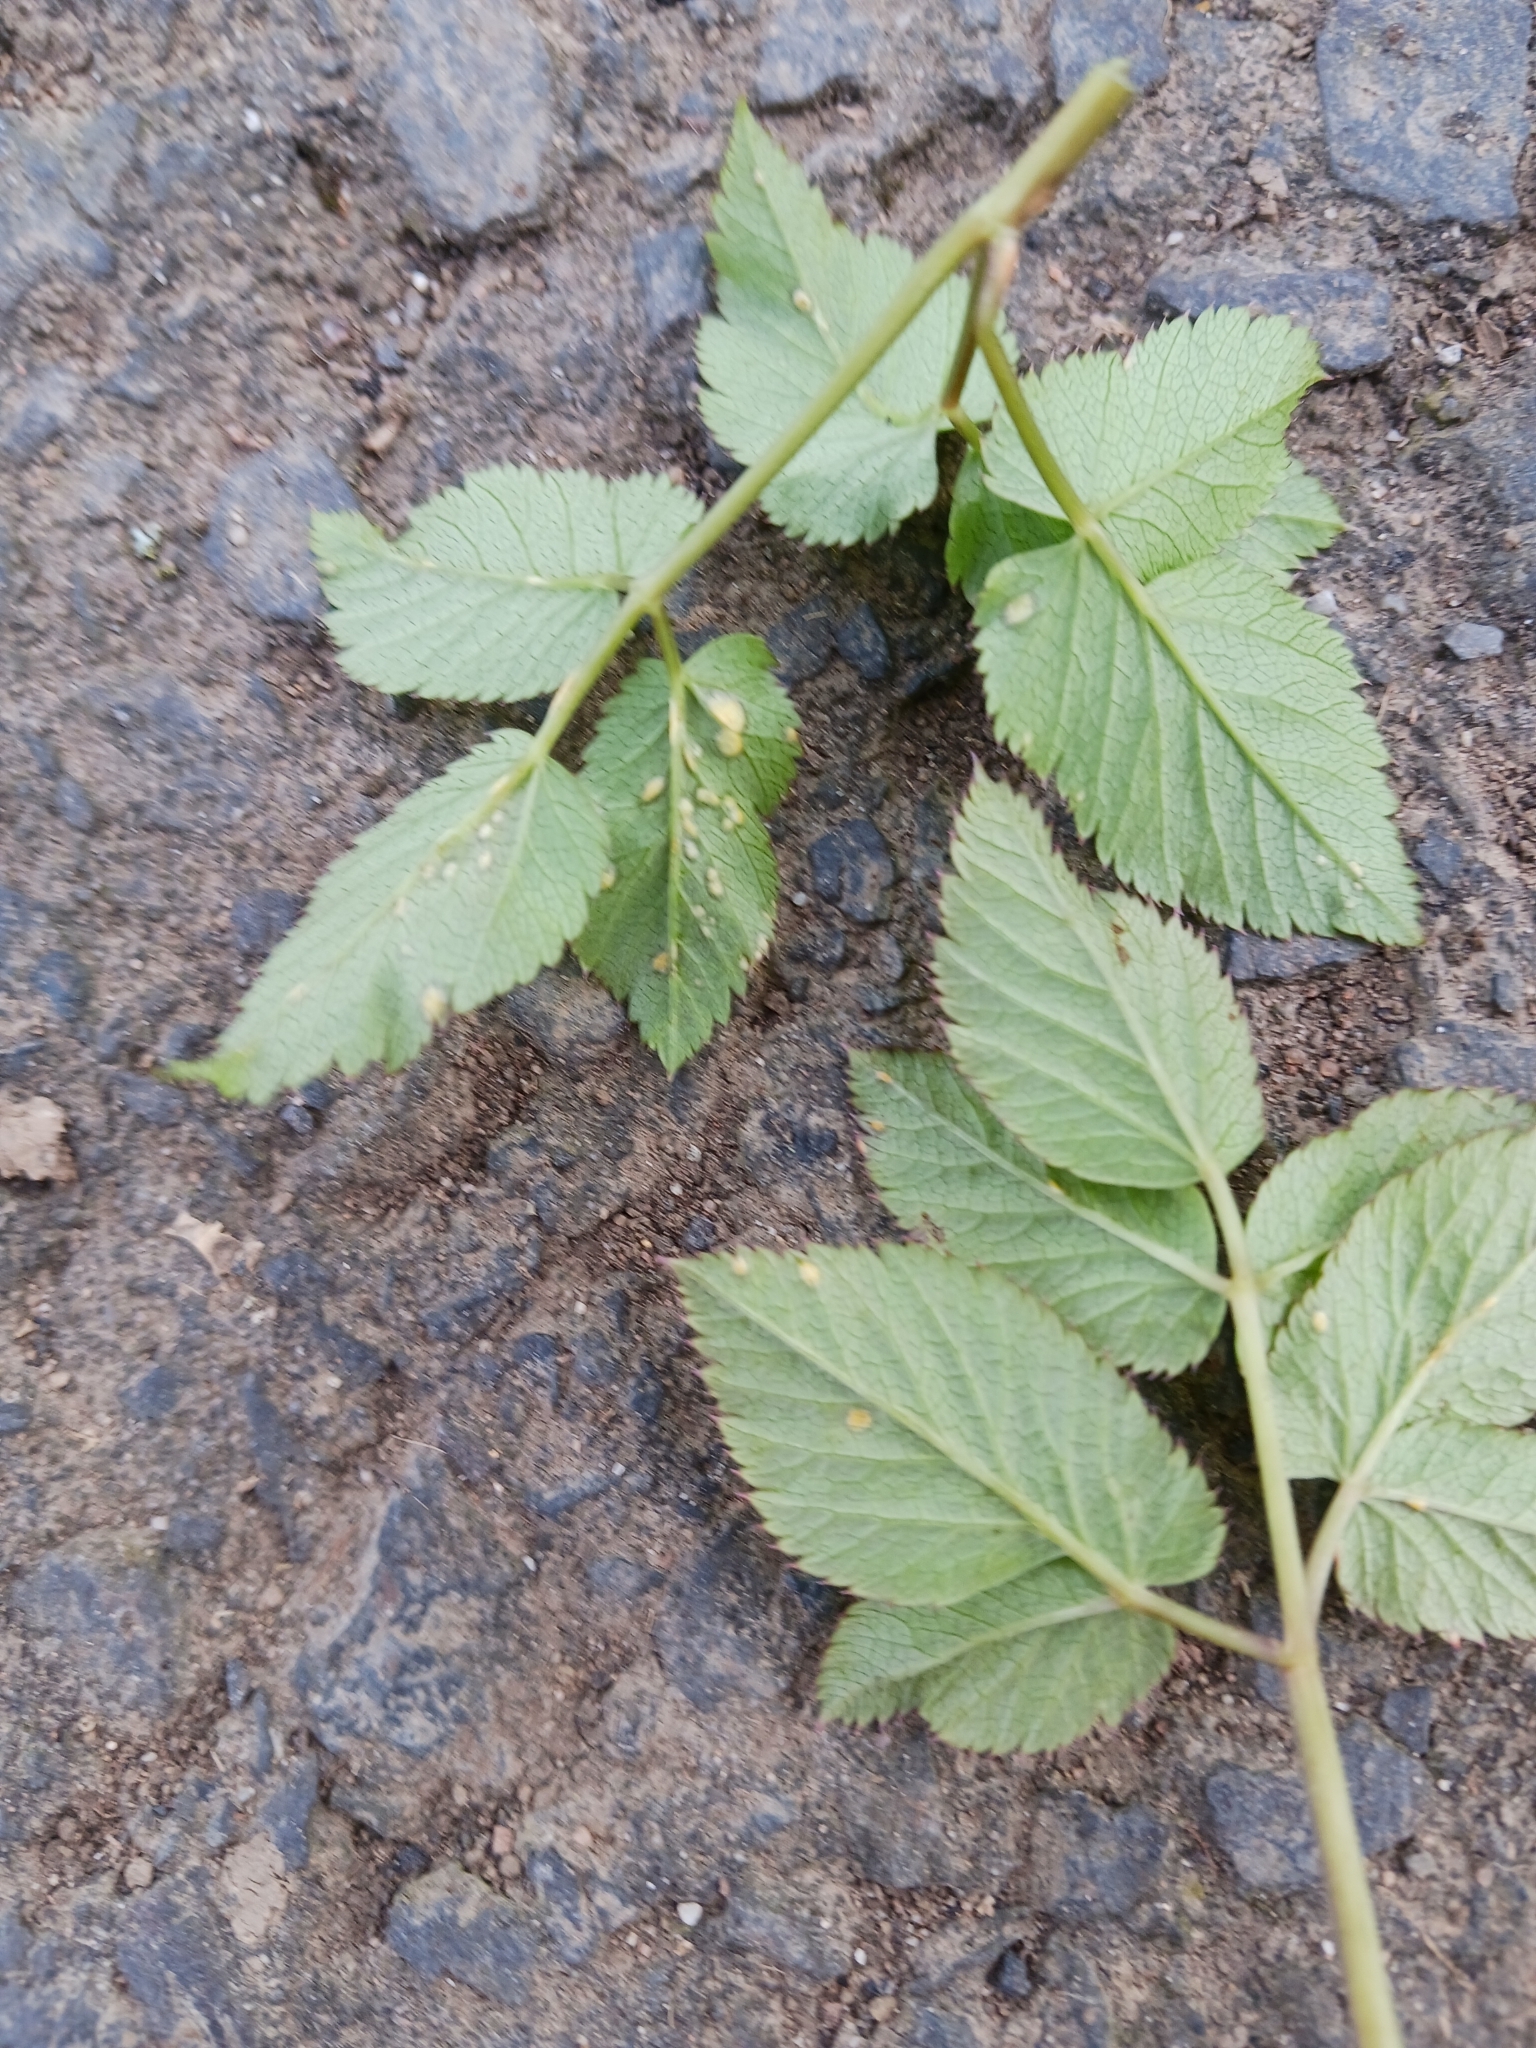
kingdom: Fungi
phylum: Ascomycota
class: Taphrinomycetes
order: Taphrinales
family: Taphrinaceae
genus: Protomyces
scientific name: Protomyces macrosporus
